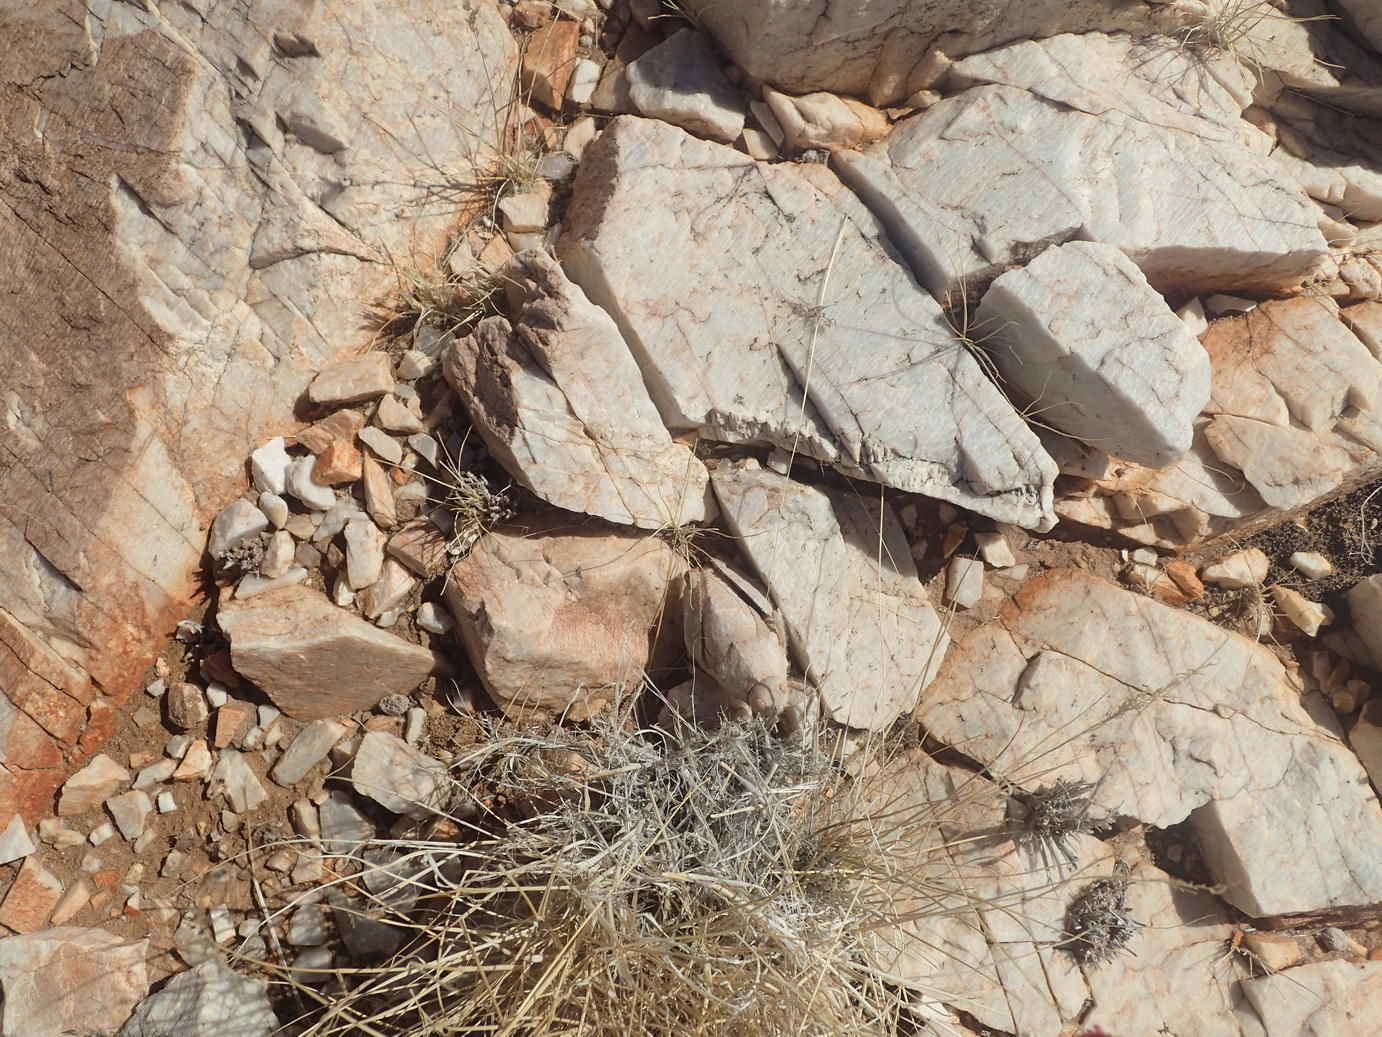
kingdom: Animalia
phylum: Arthropoda
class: Insecta
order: Orthoptera
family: Pamphagidae
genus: Trachypetrella
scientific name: Trachypetrella anderssonii
